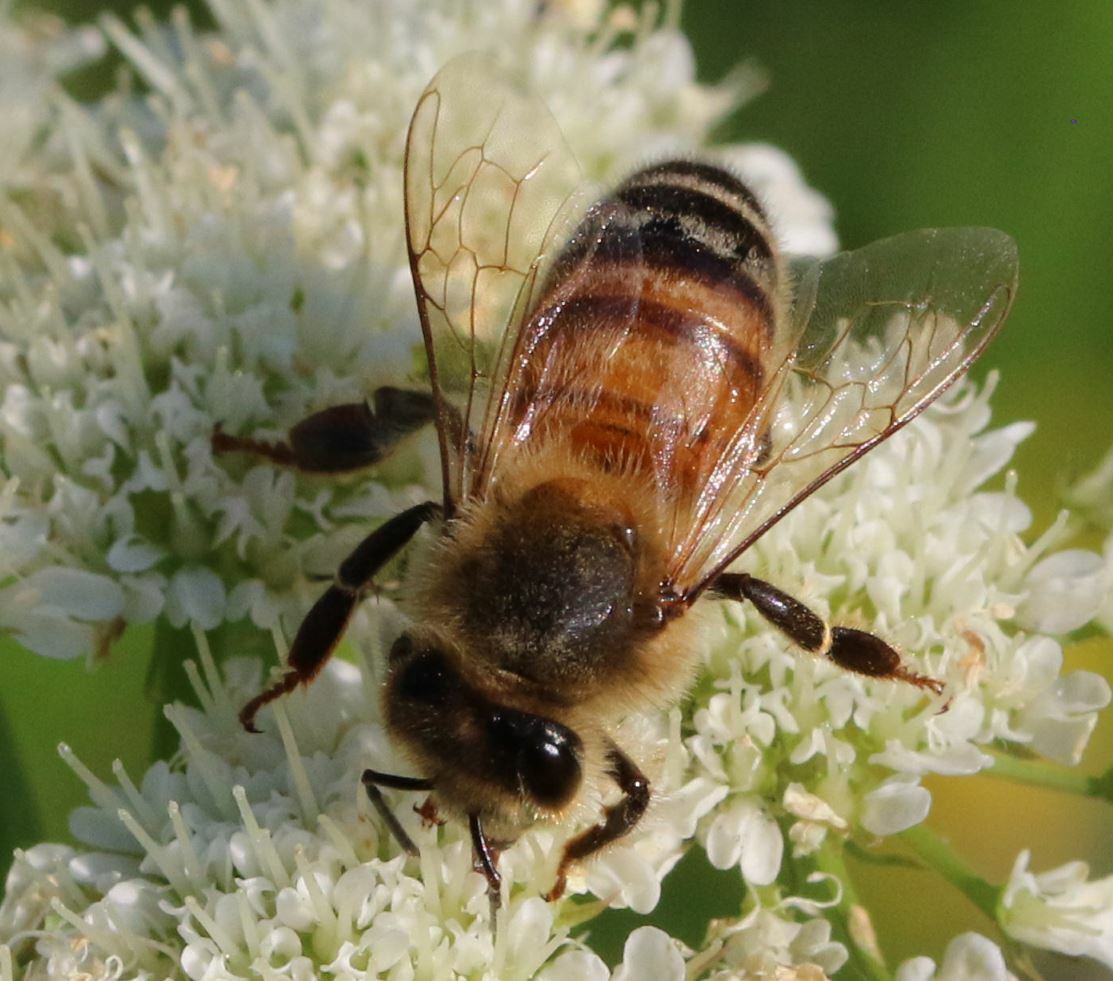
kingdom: Animalia
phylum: Arthropoda
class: Insecta
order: Hymenoptera
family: Apidae
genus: Apis
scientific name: Apis mellifera
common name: Honey bee
